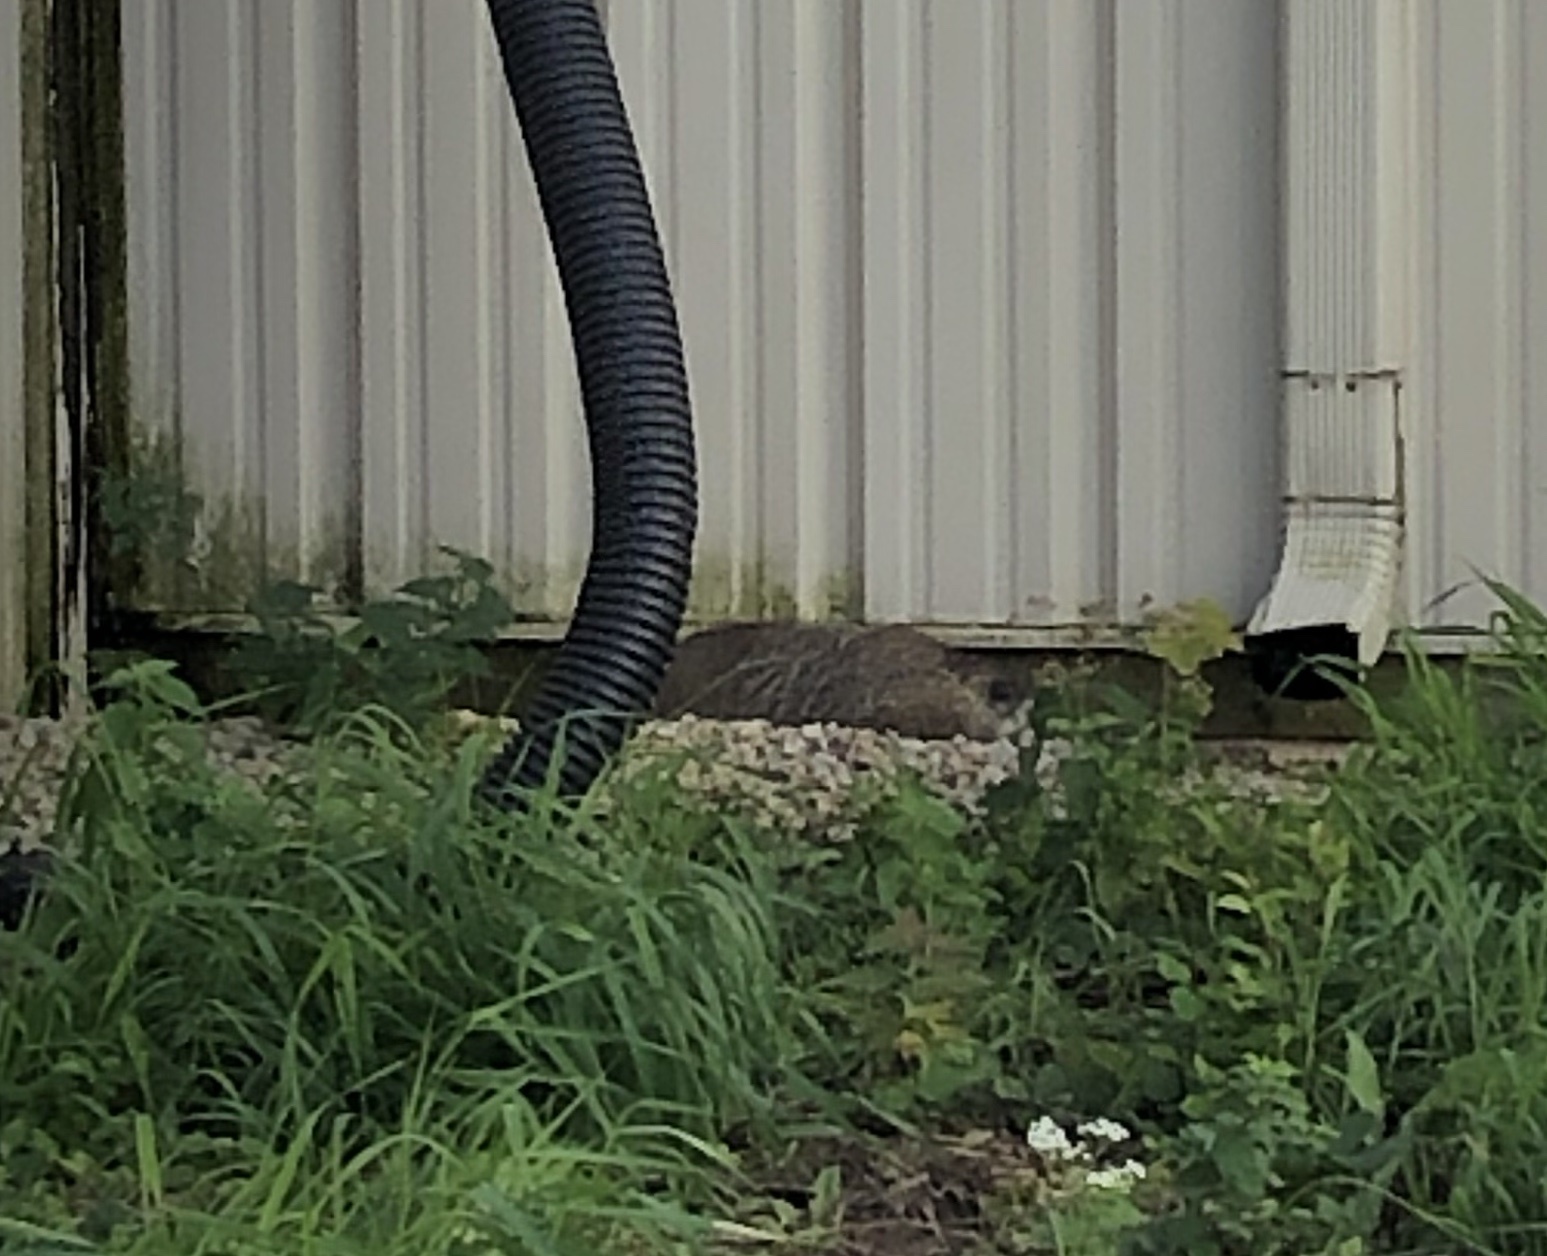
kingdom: Animalia
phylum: Chordata
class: Mammalia
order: Rodentia
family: Sciuridae
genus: Marmota
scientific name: Marmota monax
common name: Groundhog
